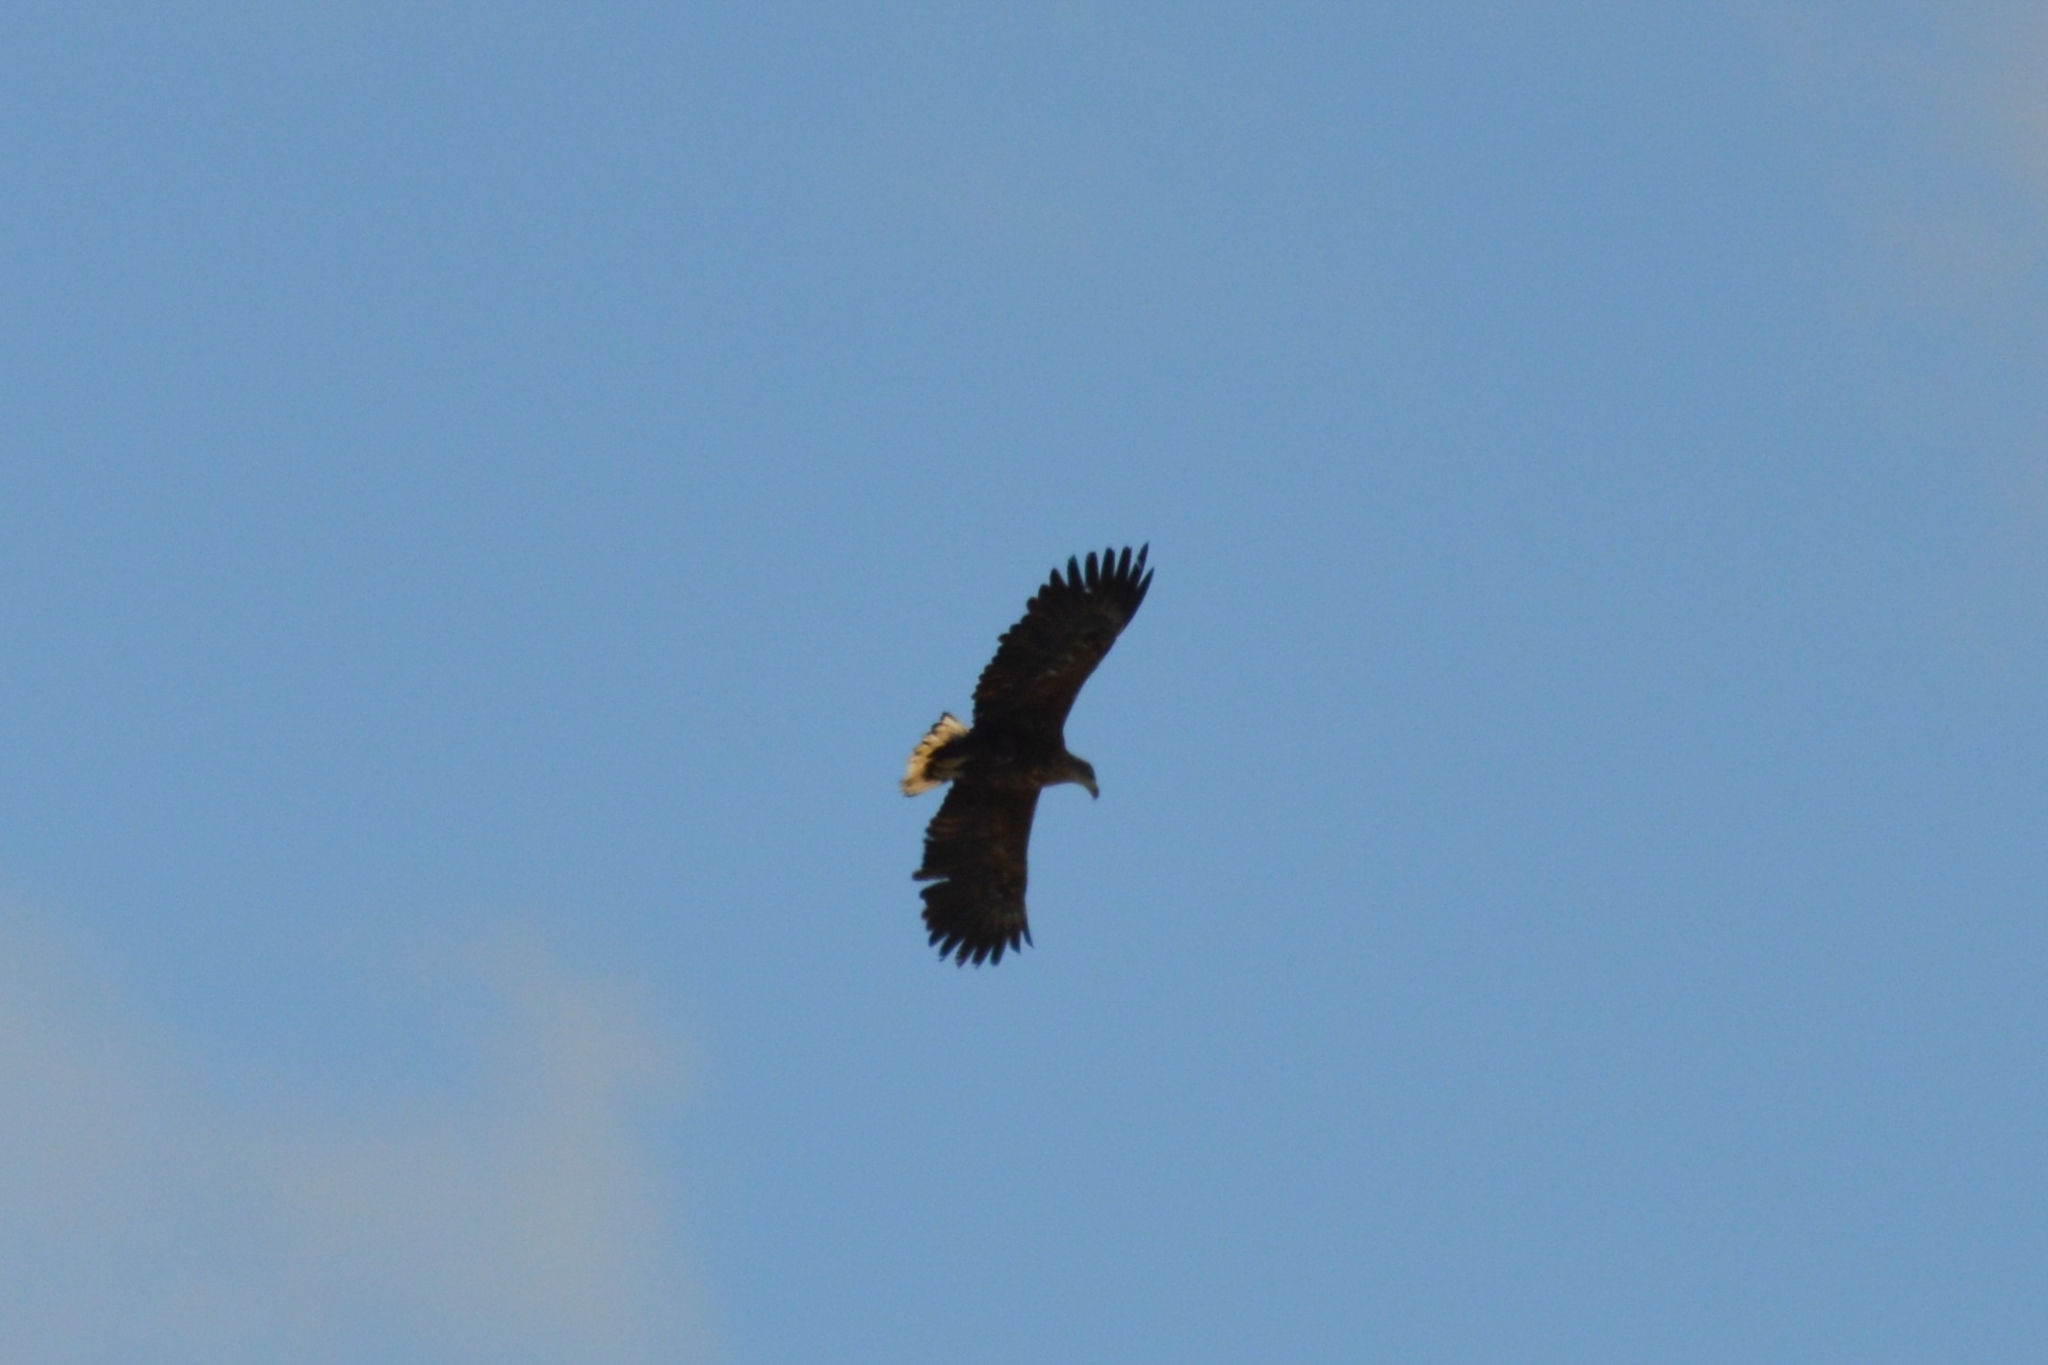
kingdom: Animalia
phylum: Chordata
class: Aves
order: Accipitriformes
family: Accipitridae
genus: Haliaeetus
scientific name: Haliaeetus albicilla
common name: White-tailed eagle
